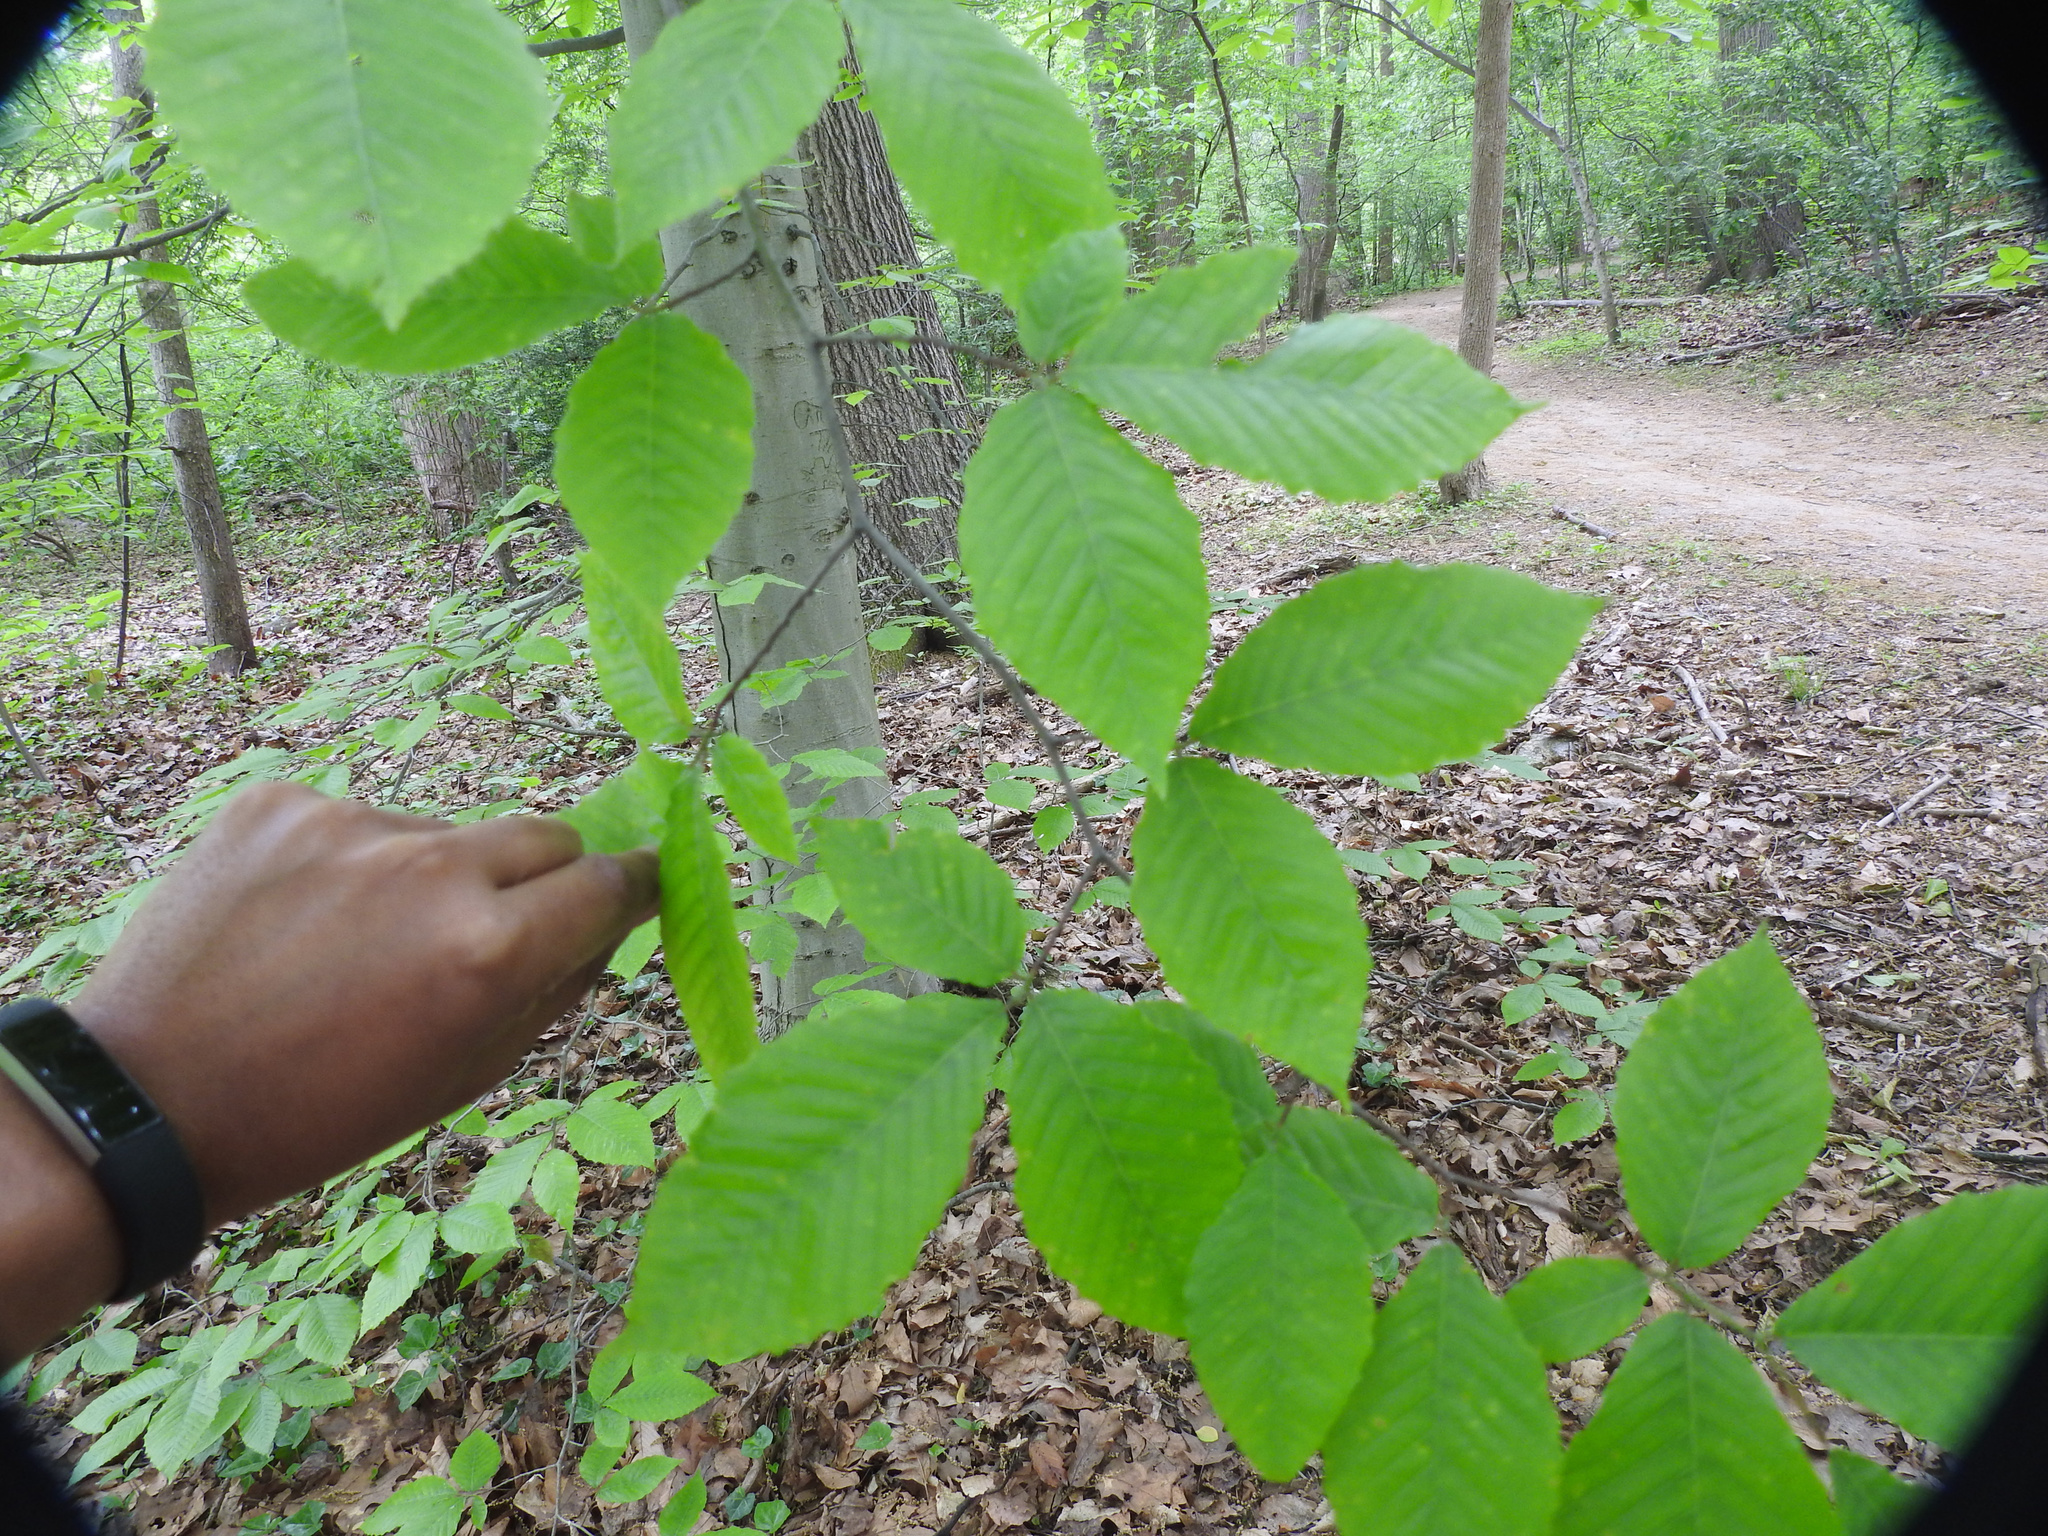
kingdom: Plantae
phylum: Tracheophyta
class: Magnoliopsida
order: Fagales
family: Fagaceae
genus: Fagus
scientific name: Fagus grandifolia
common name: American beech
